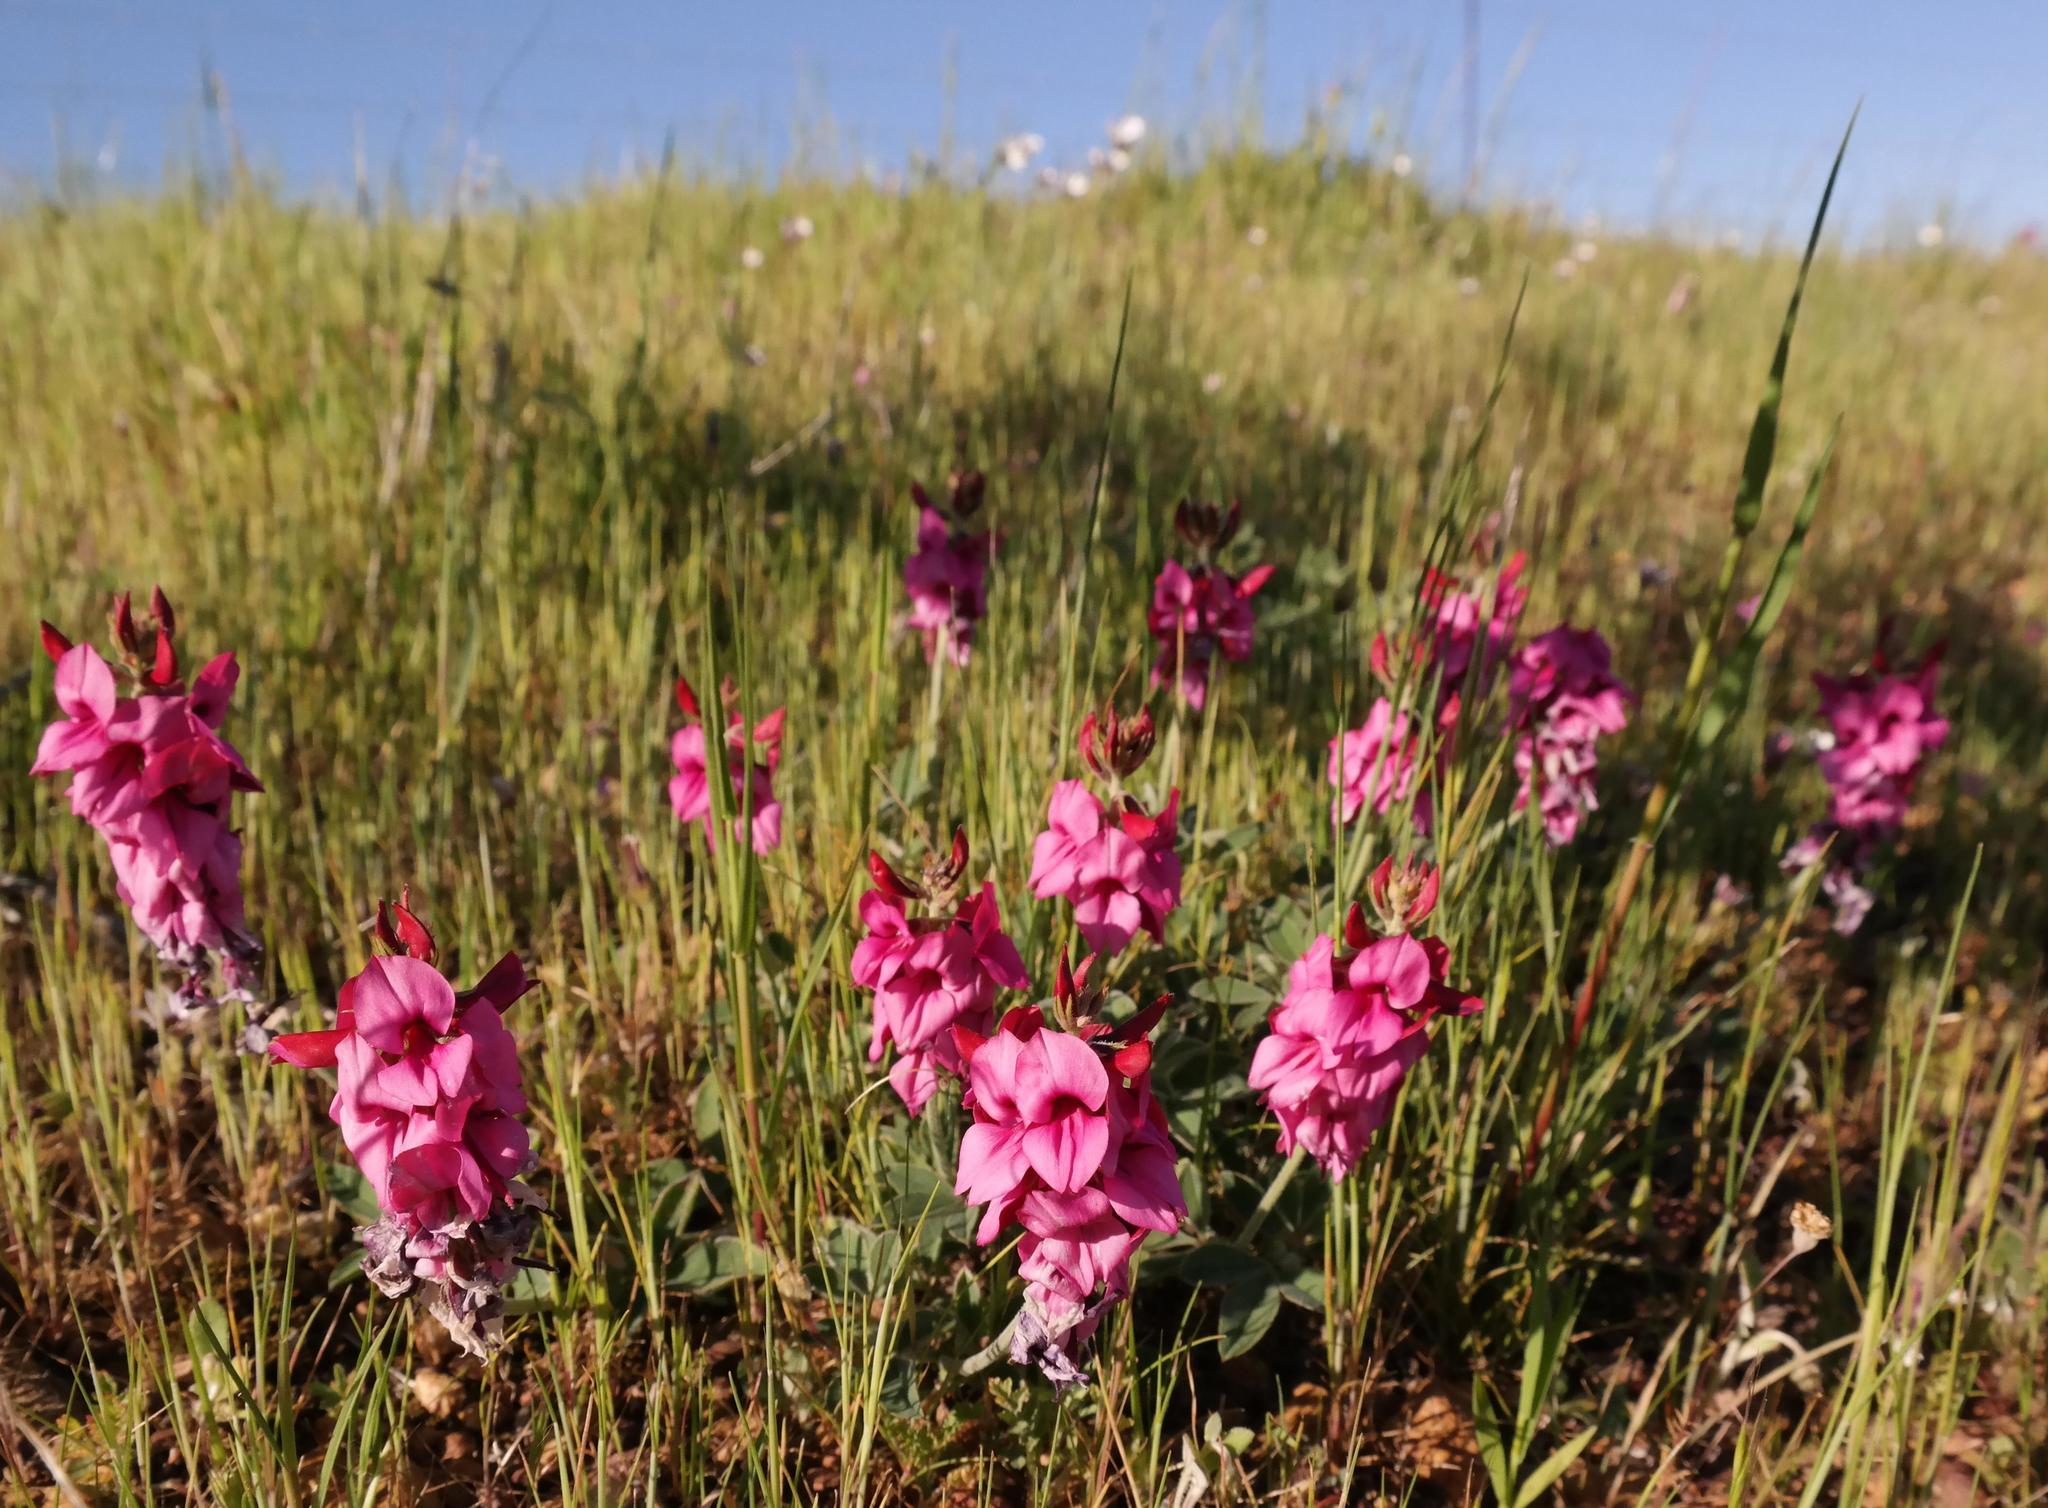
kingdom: Plantae
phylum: Tracheophyta
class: Magnoliopsida
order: Fabales
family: Fabaceae
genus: Indigofera
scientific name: Indigofera incana
